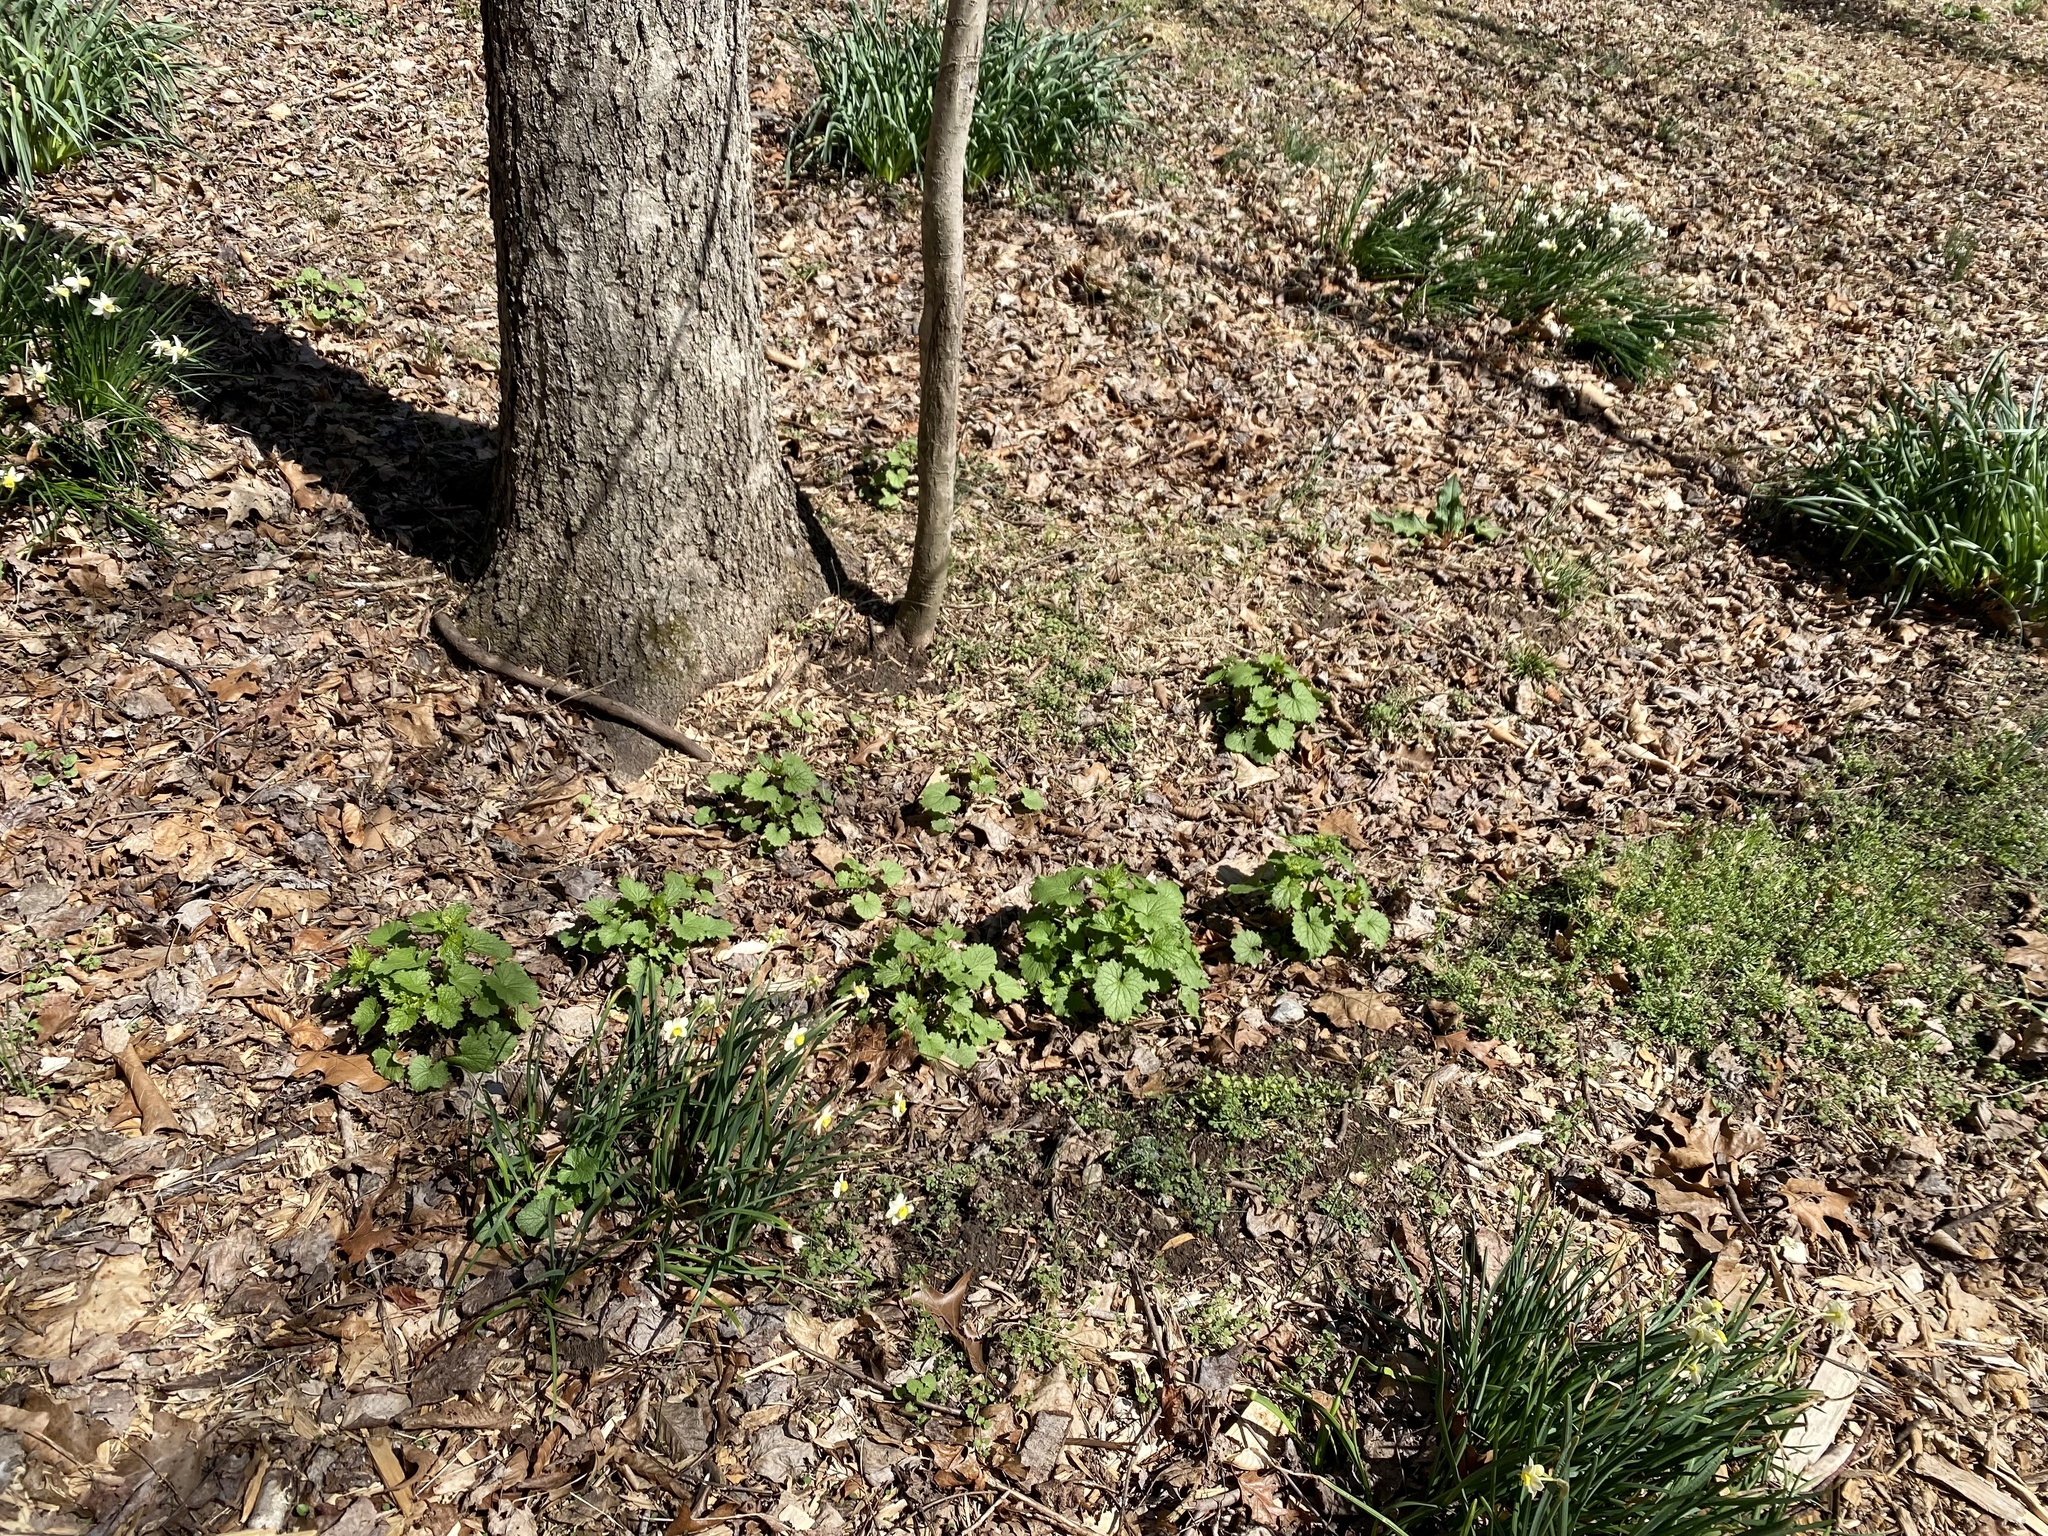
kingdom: Plantae
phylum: Tracheophyta
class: Magnoliopsida
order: Brassicales
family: Brassicaceae
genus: Alliaria
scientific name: Alliaria petiolata
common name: Garlic mustard
